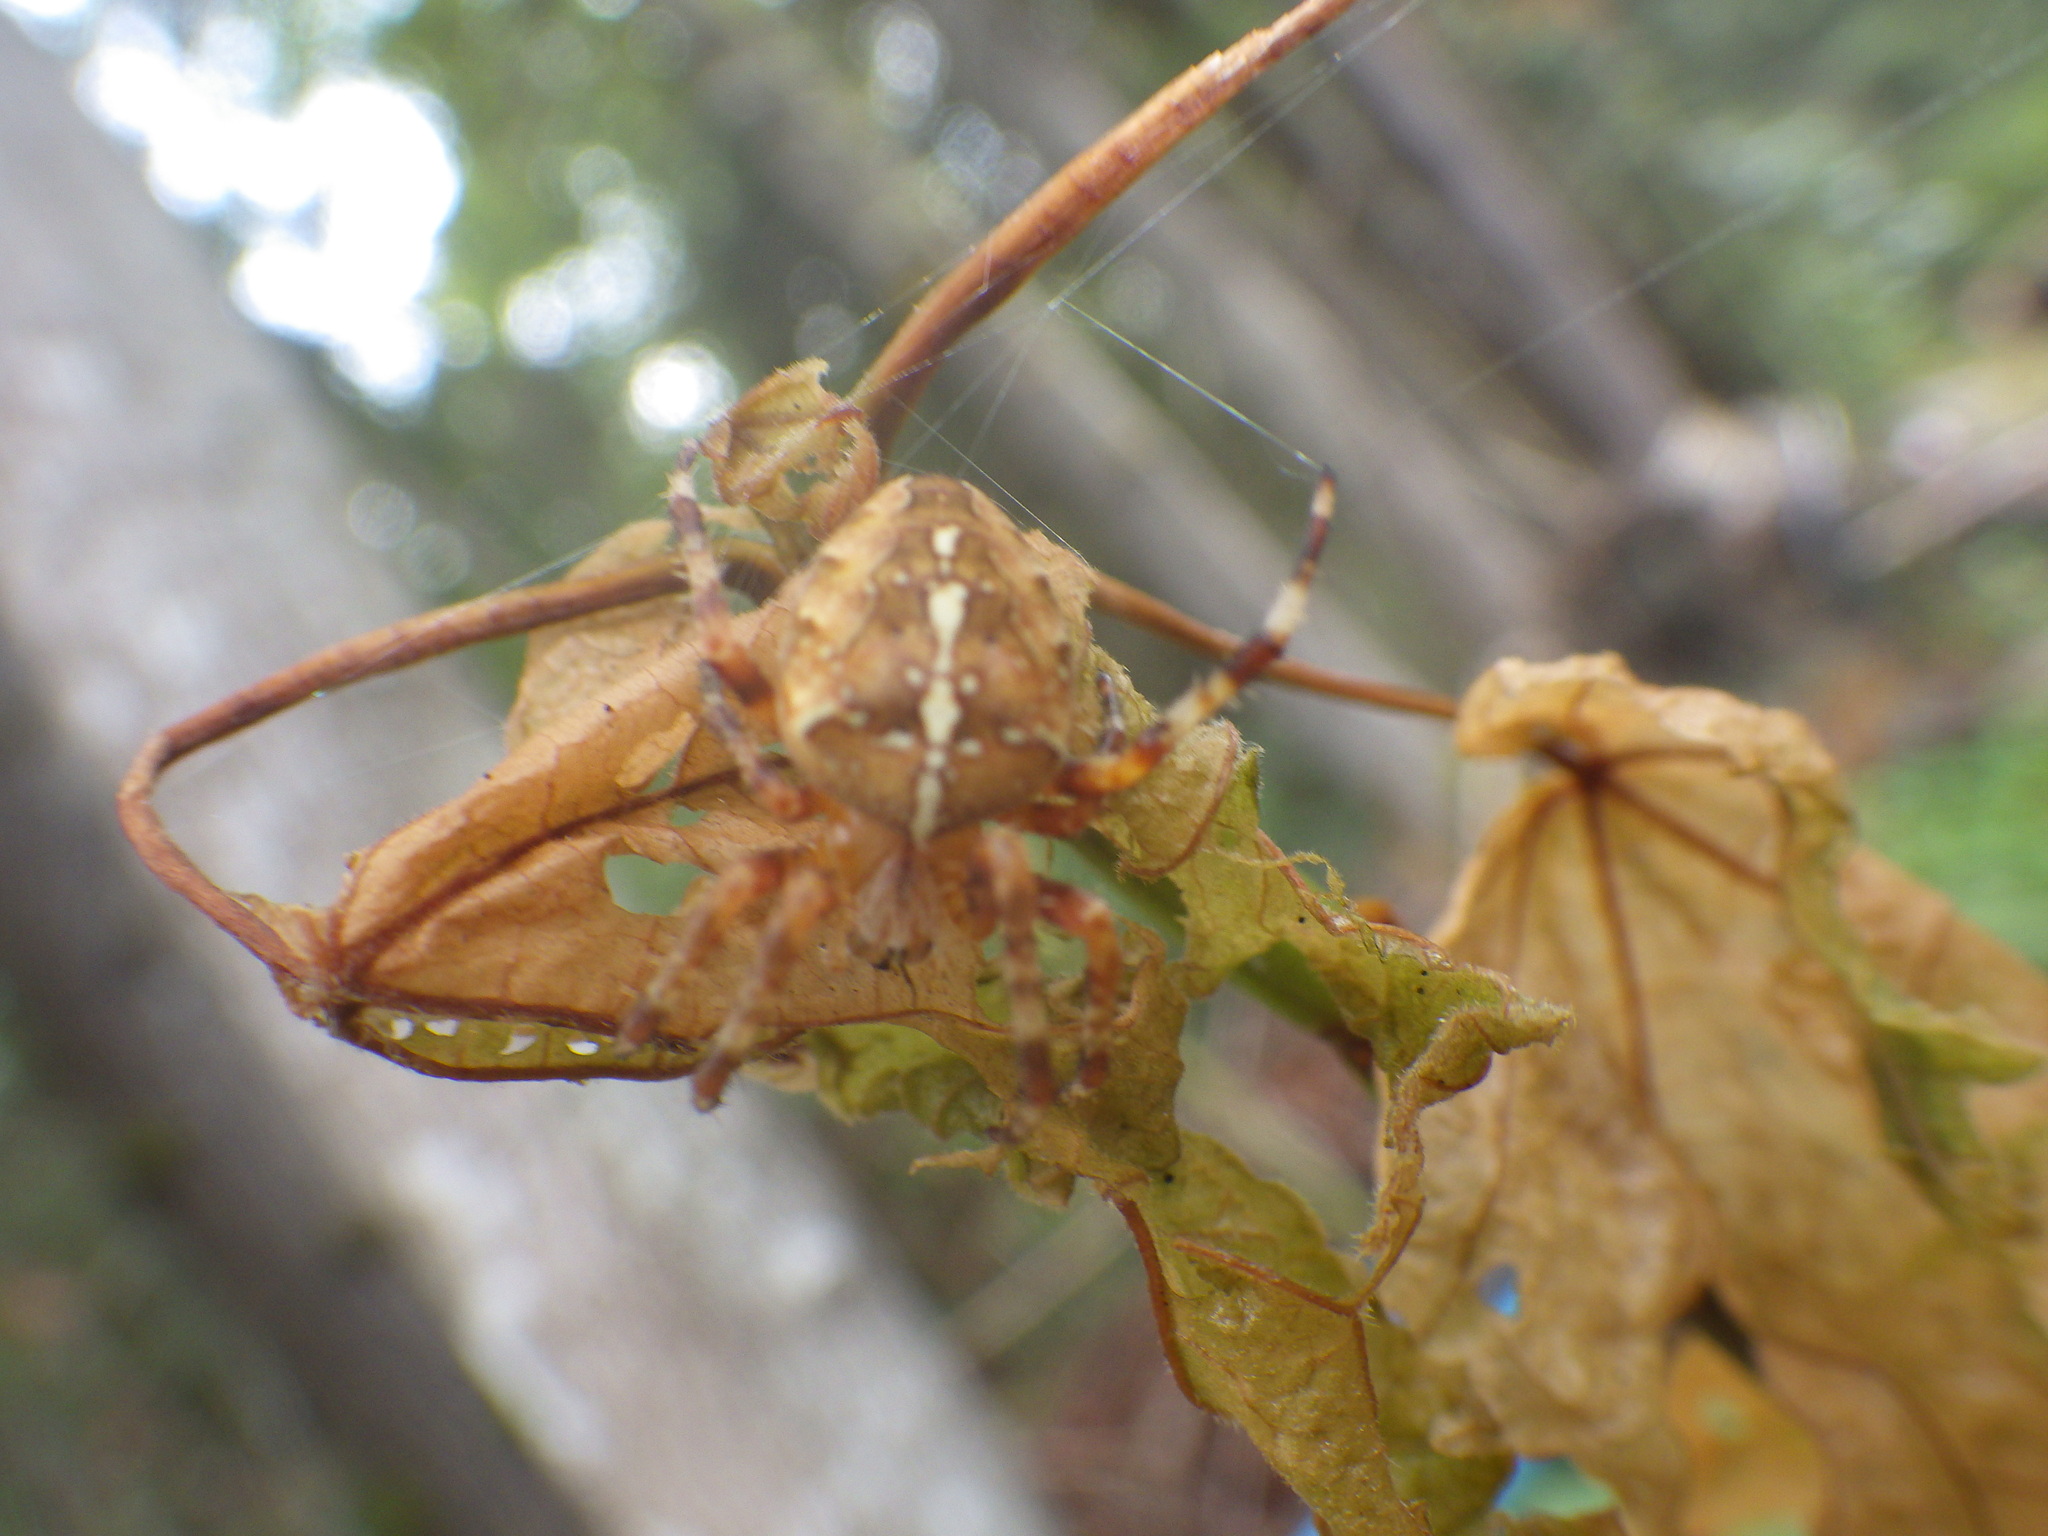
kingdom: Animalia
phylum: Arthropoda
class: Arachnida
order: Araneae
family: Araneidae
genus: Araneus
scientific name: Araneus diadematus
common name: Cross orbweaver
